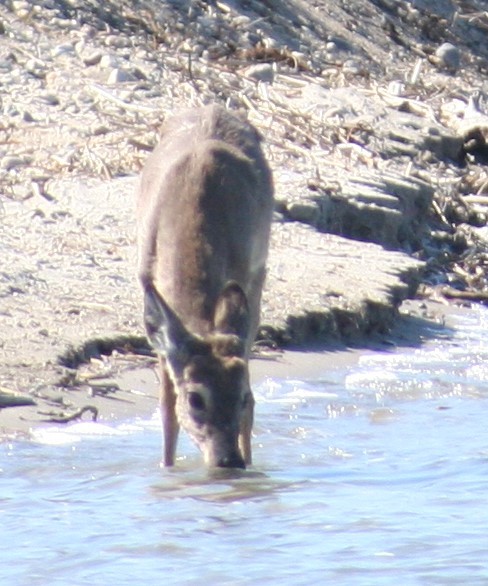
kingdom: Animalia
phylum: Chordata
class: Mammalia
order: Artiodactyla
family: Cervidae
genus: Odocoileus
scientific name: Odocoileus virginianus
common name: White-tailed deer
